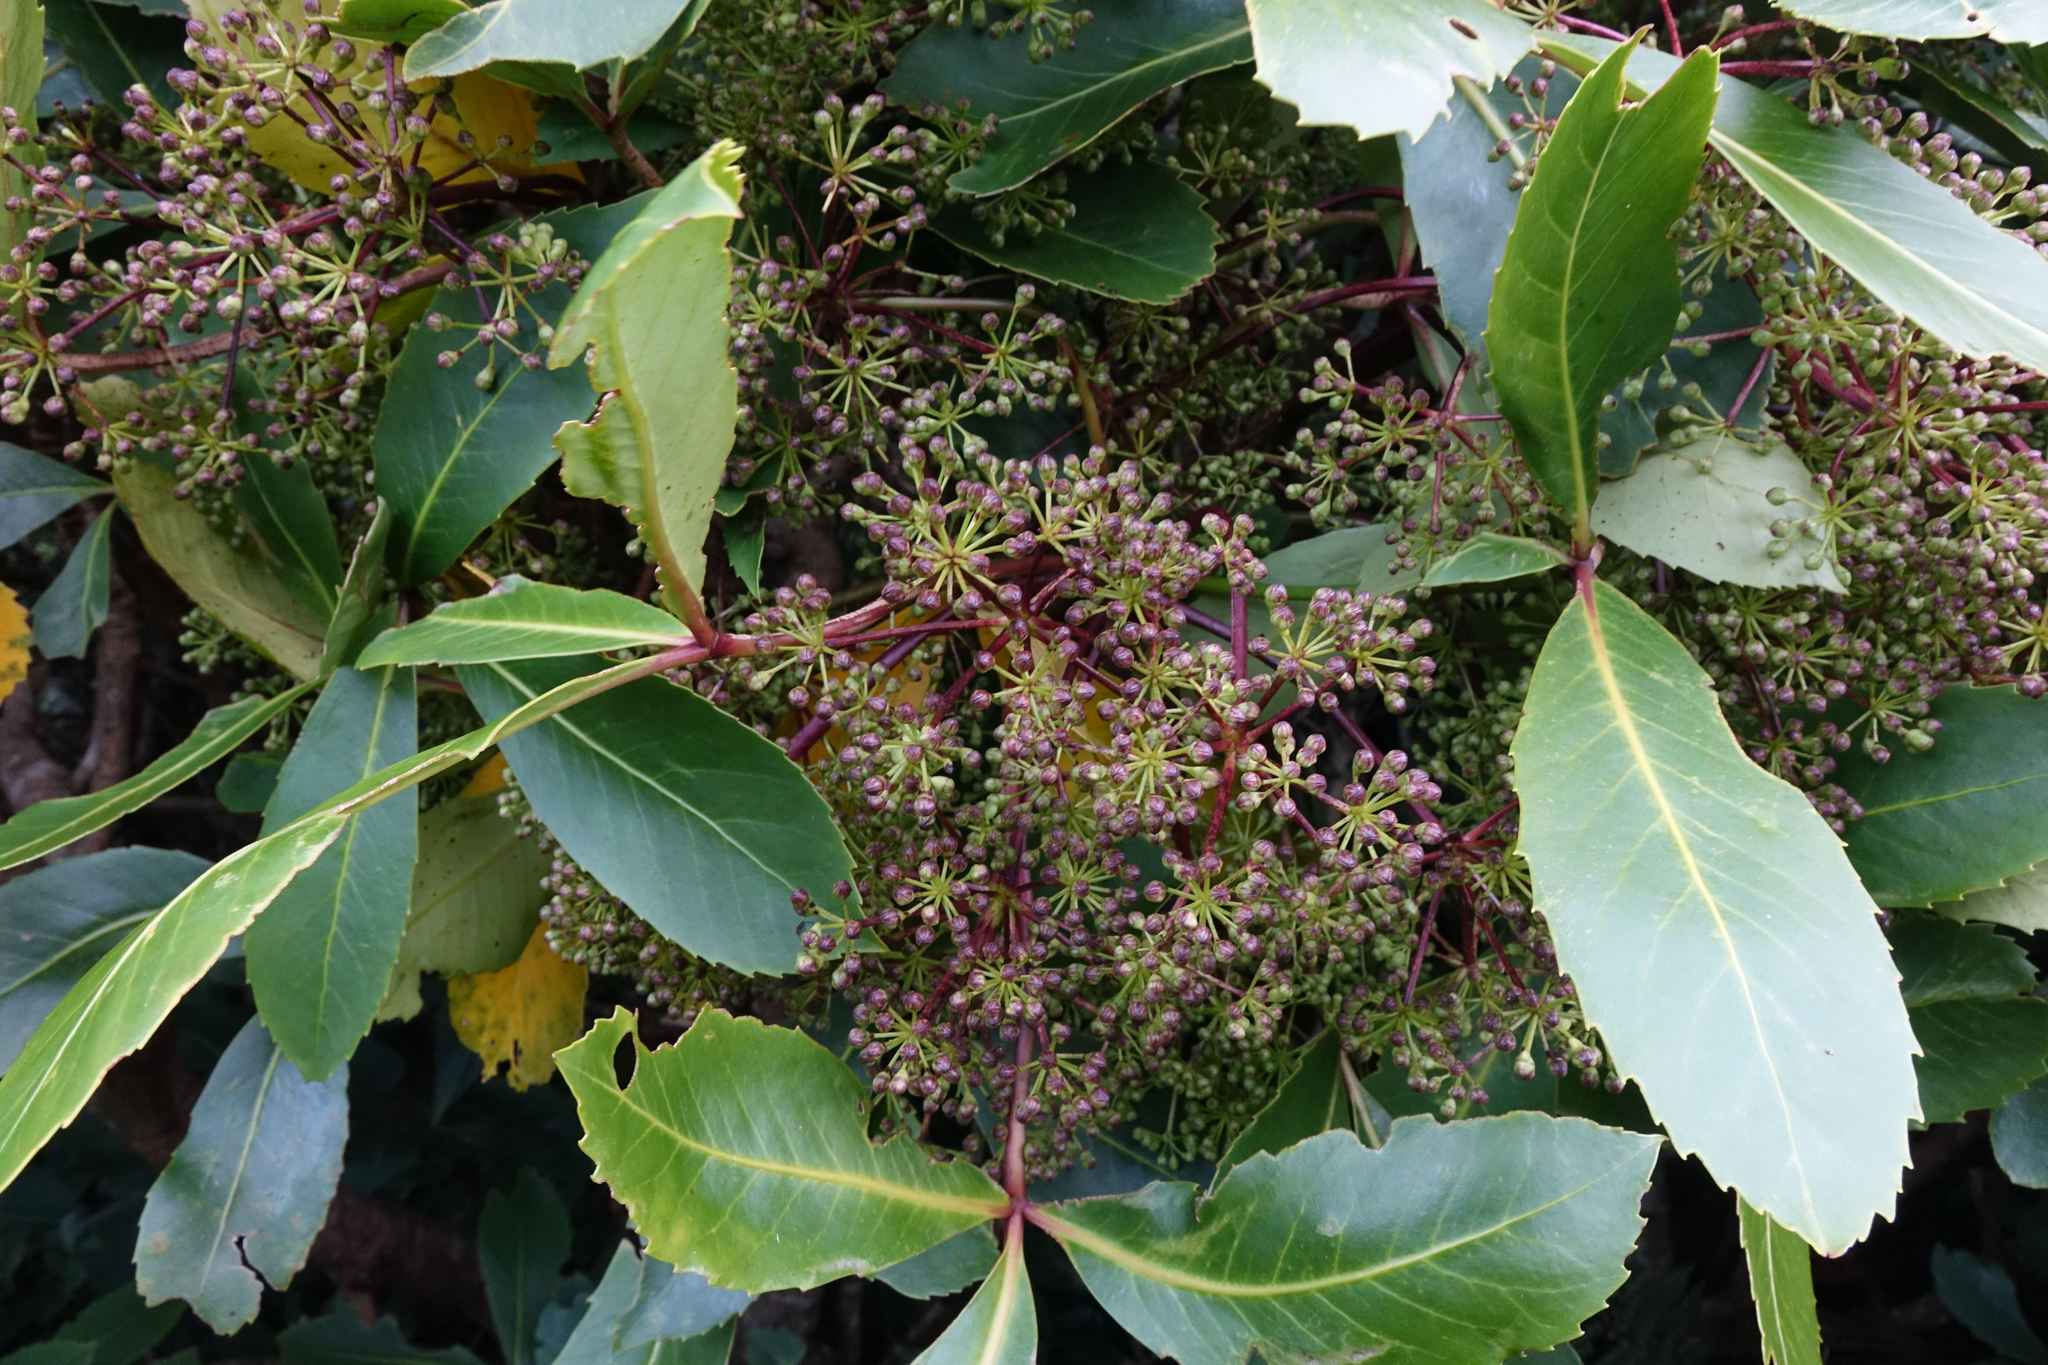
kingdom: Plantae
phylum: Tracheophyta
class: Magnoliopsida
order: Apiales
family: Araliaceae
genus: Neopanax
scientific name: Neopanax colensoi
